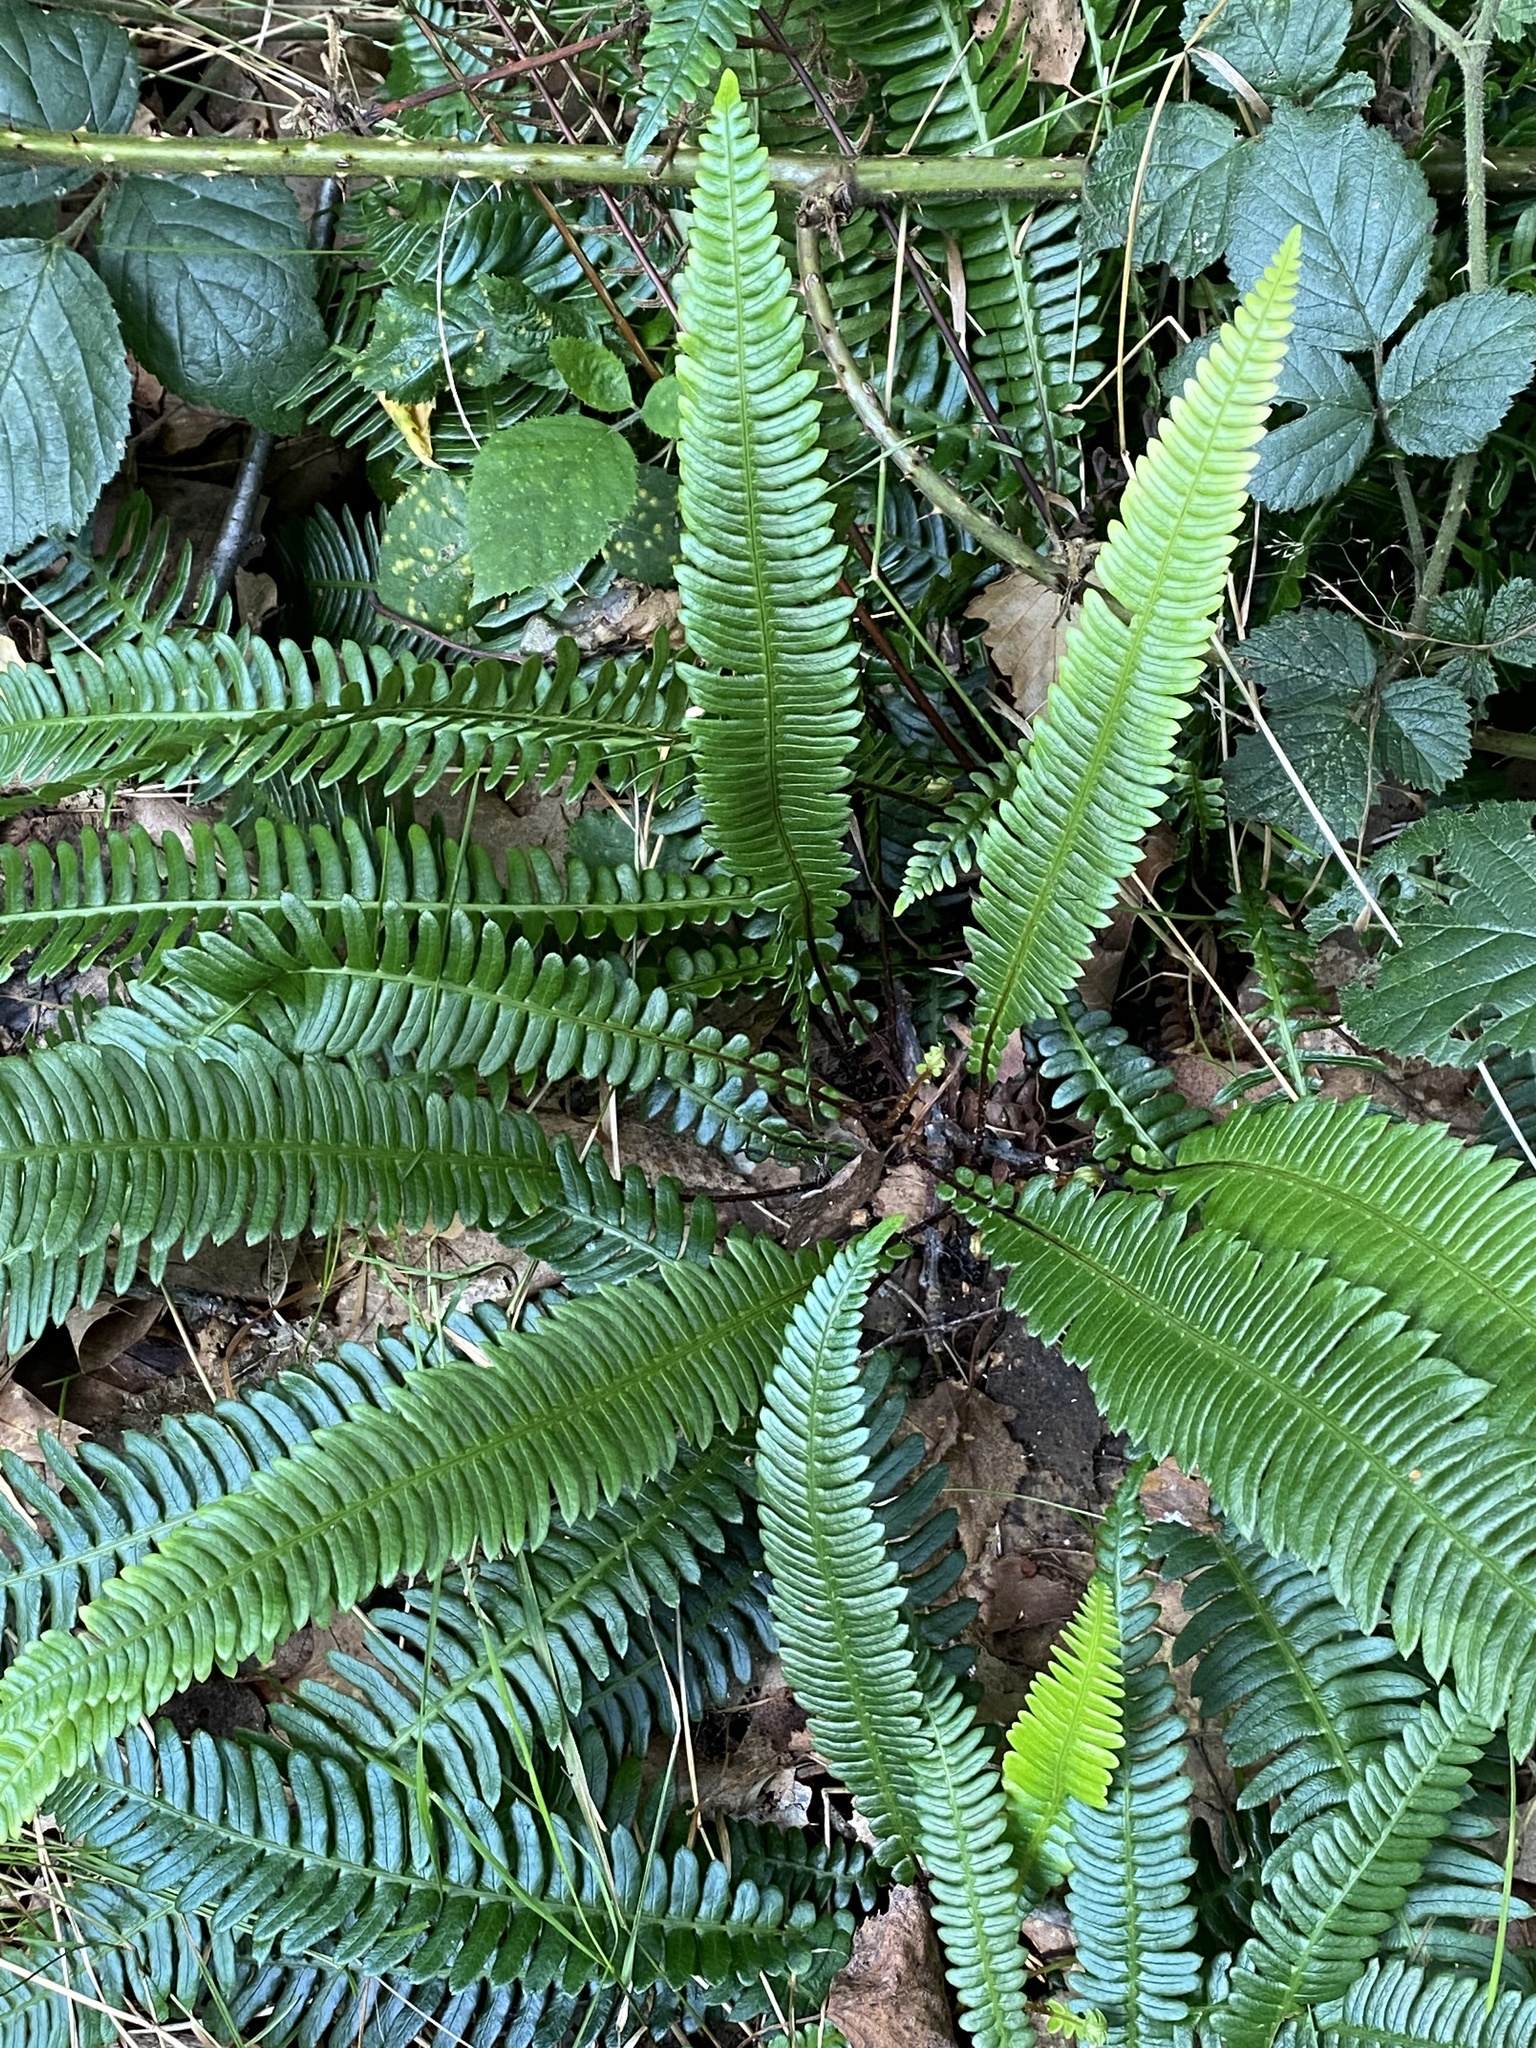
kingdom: Plantae
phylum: Tracheophyta
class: Polypodiopsida
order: Polypodiales
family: Blechnaceae
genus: Struthiopteris
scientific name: Struthiopteris spicant
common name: Deer fern
